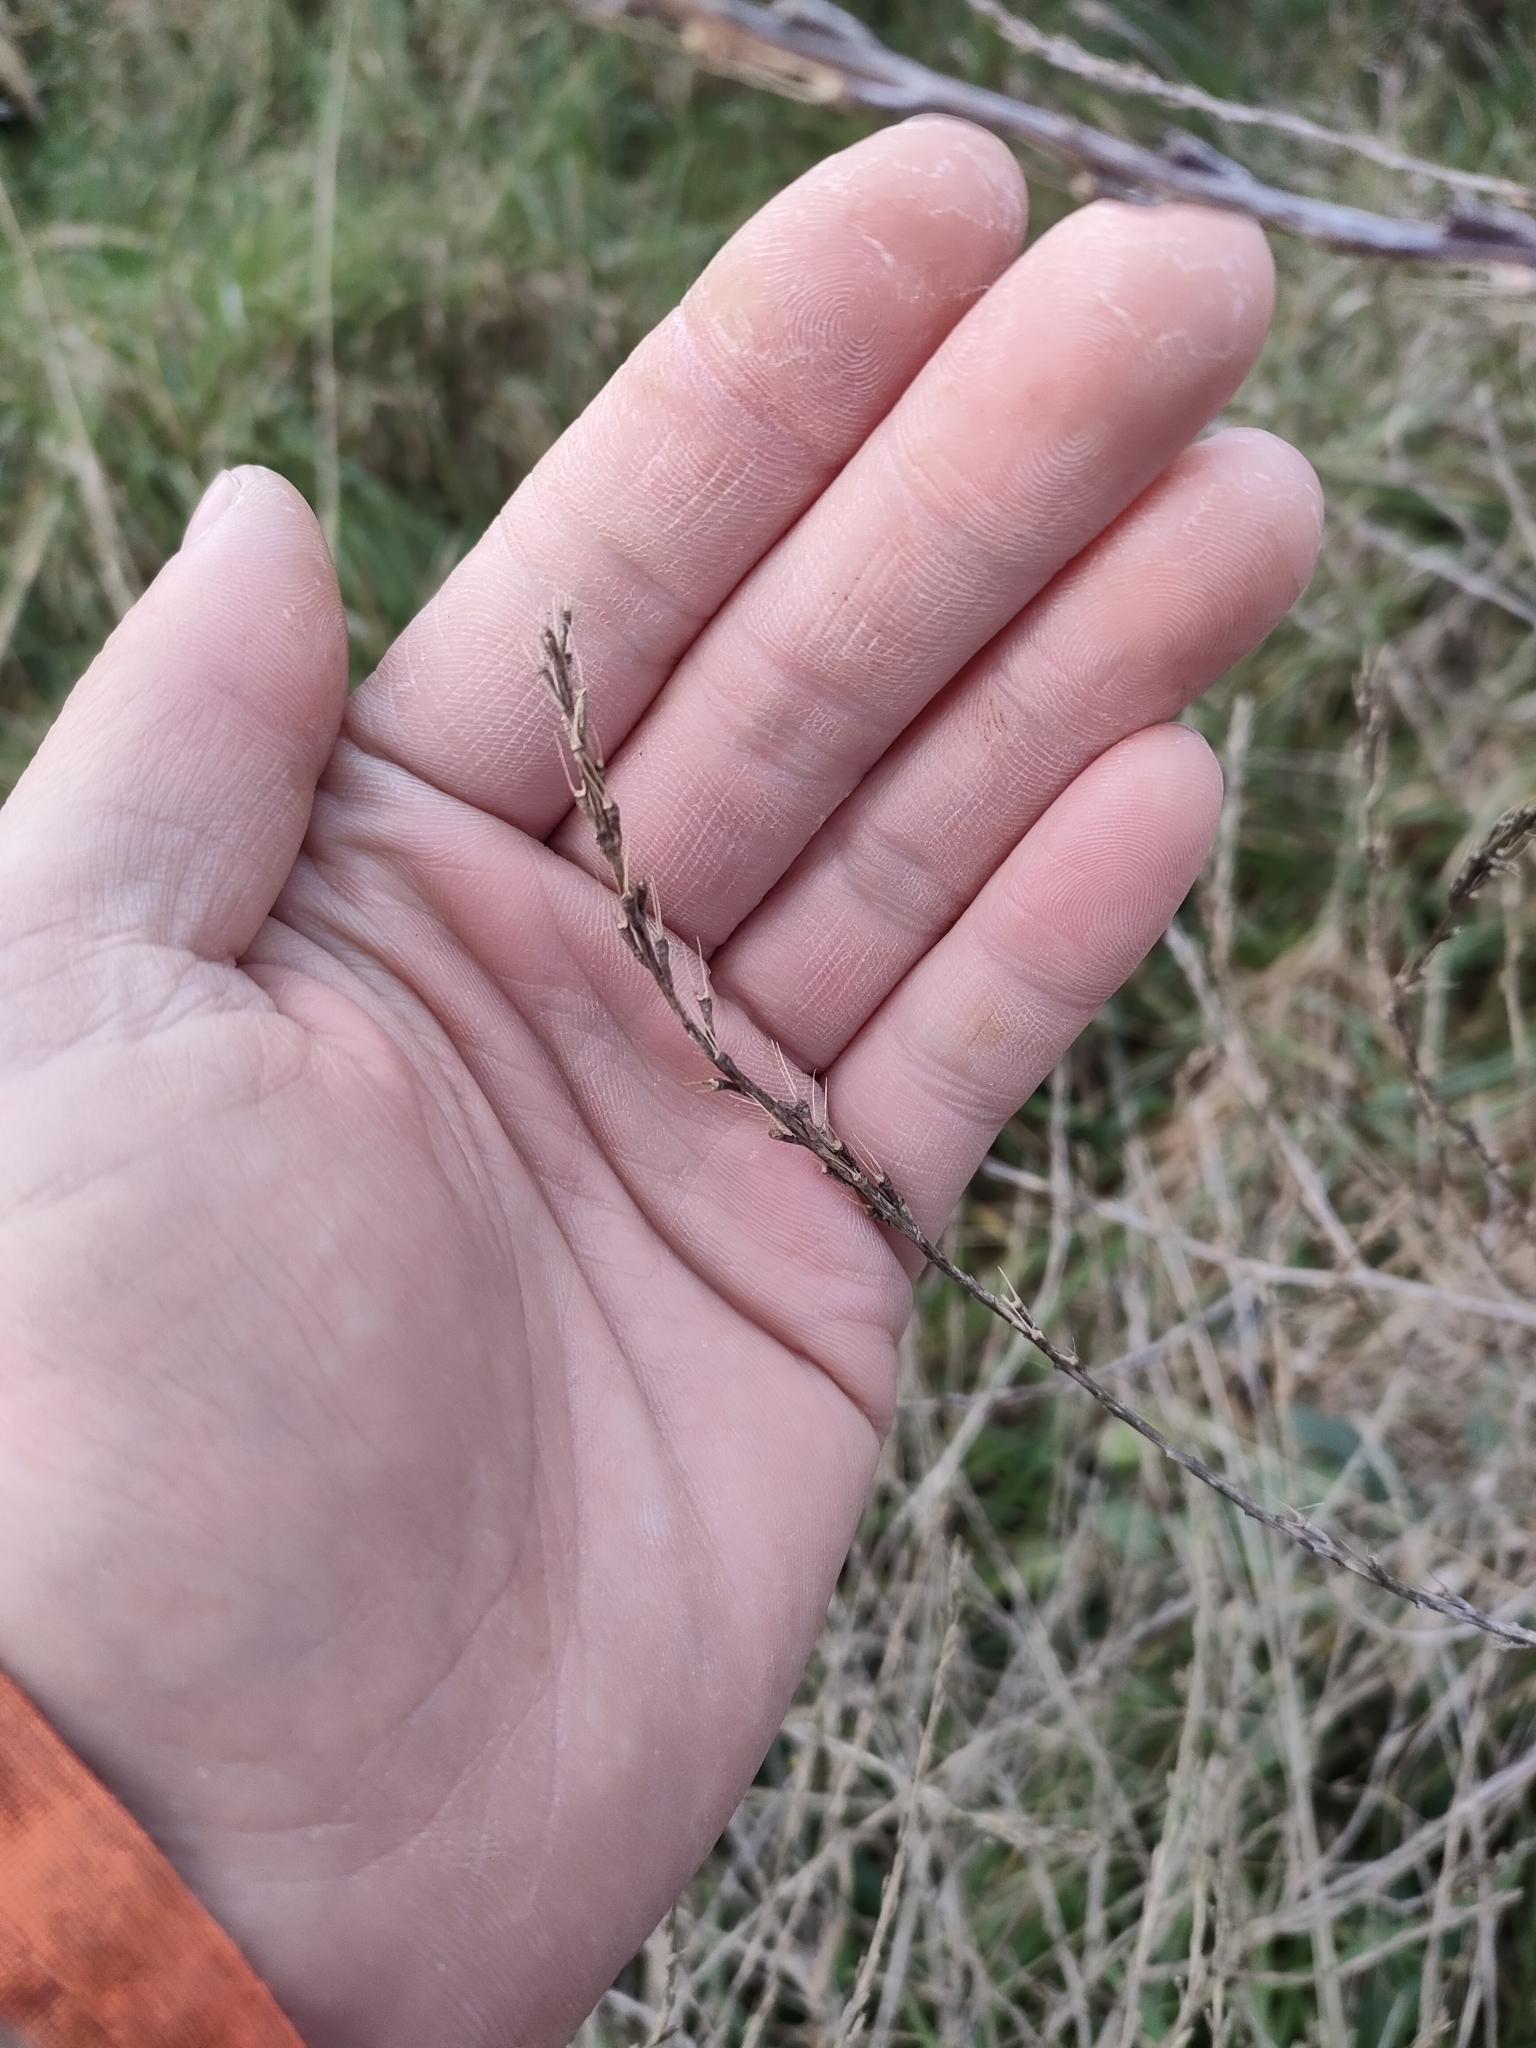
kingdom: Plantae
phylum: Tracheophyta
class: Magnoliopsida
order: Brassicales
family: Brassicaceae
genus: Hirschfeldia
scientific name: Hirschfeldia incana
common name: Hoary mustard
